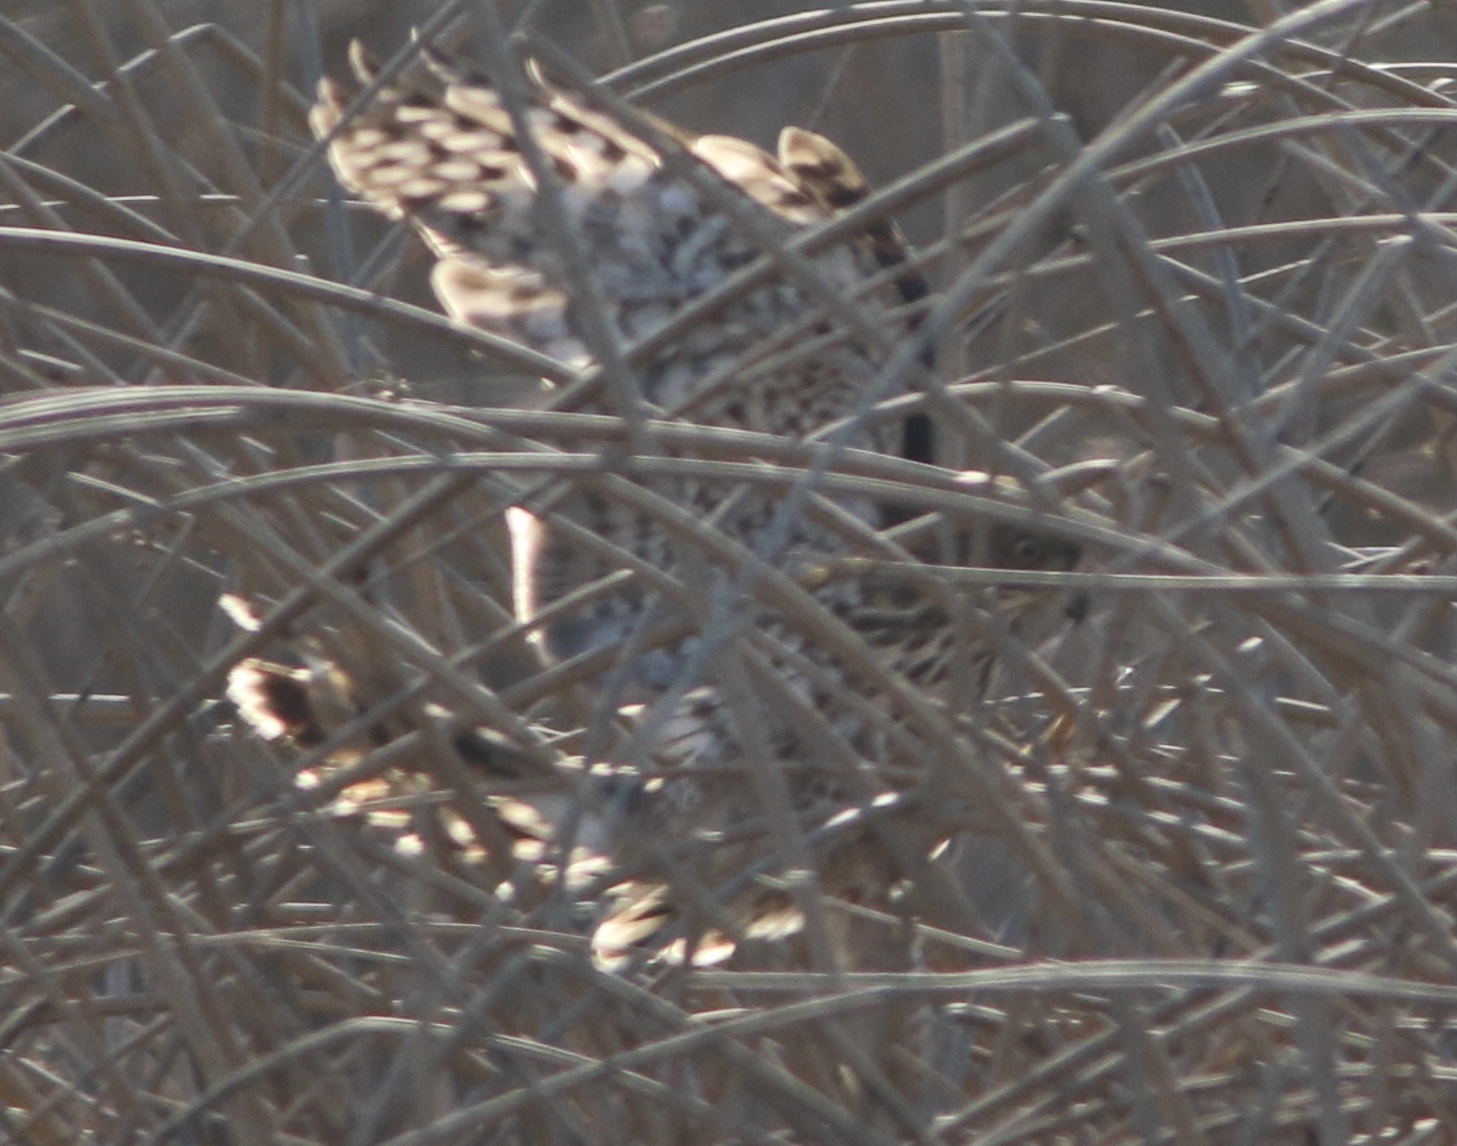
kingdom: Animalia
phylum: Chordata
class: Aves
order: Accipitriformes
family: Accipitridae
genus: Accipiter
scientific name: Accipiter striatus
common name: Sharp-shinned hawk
